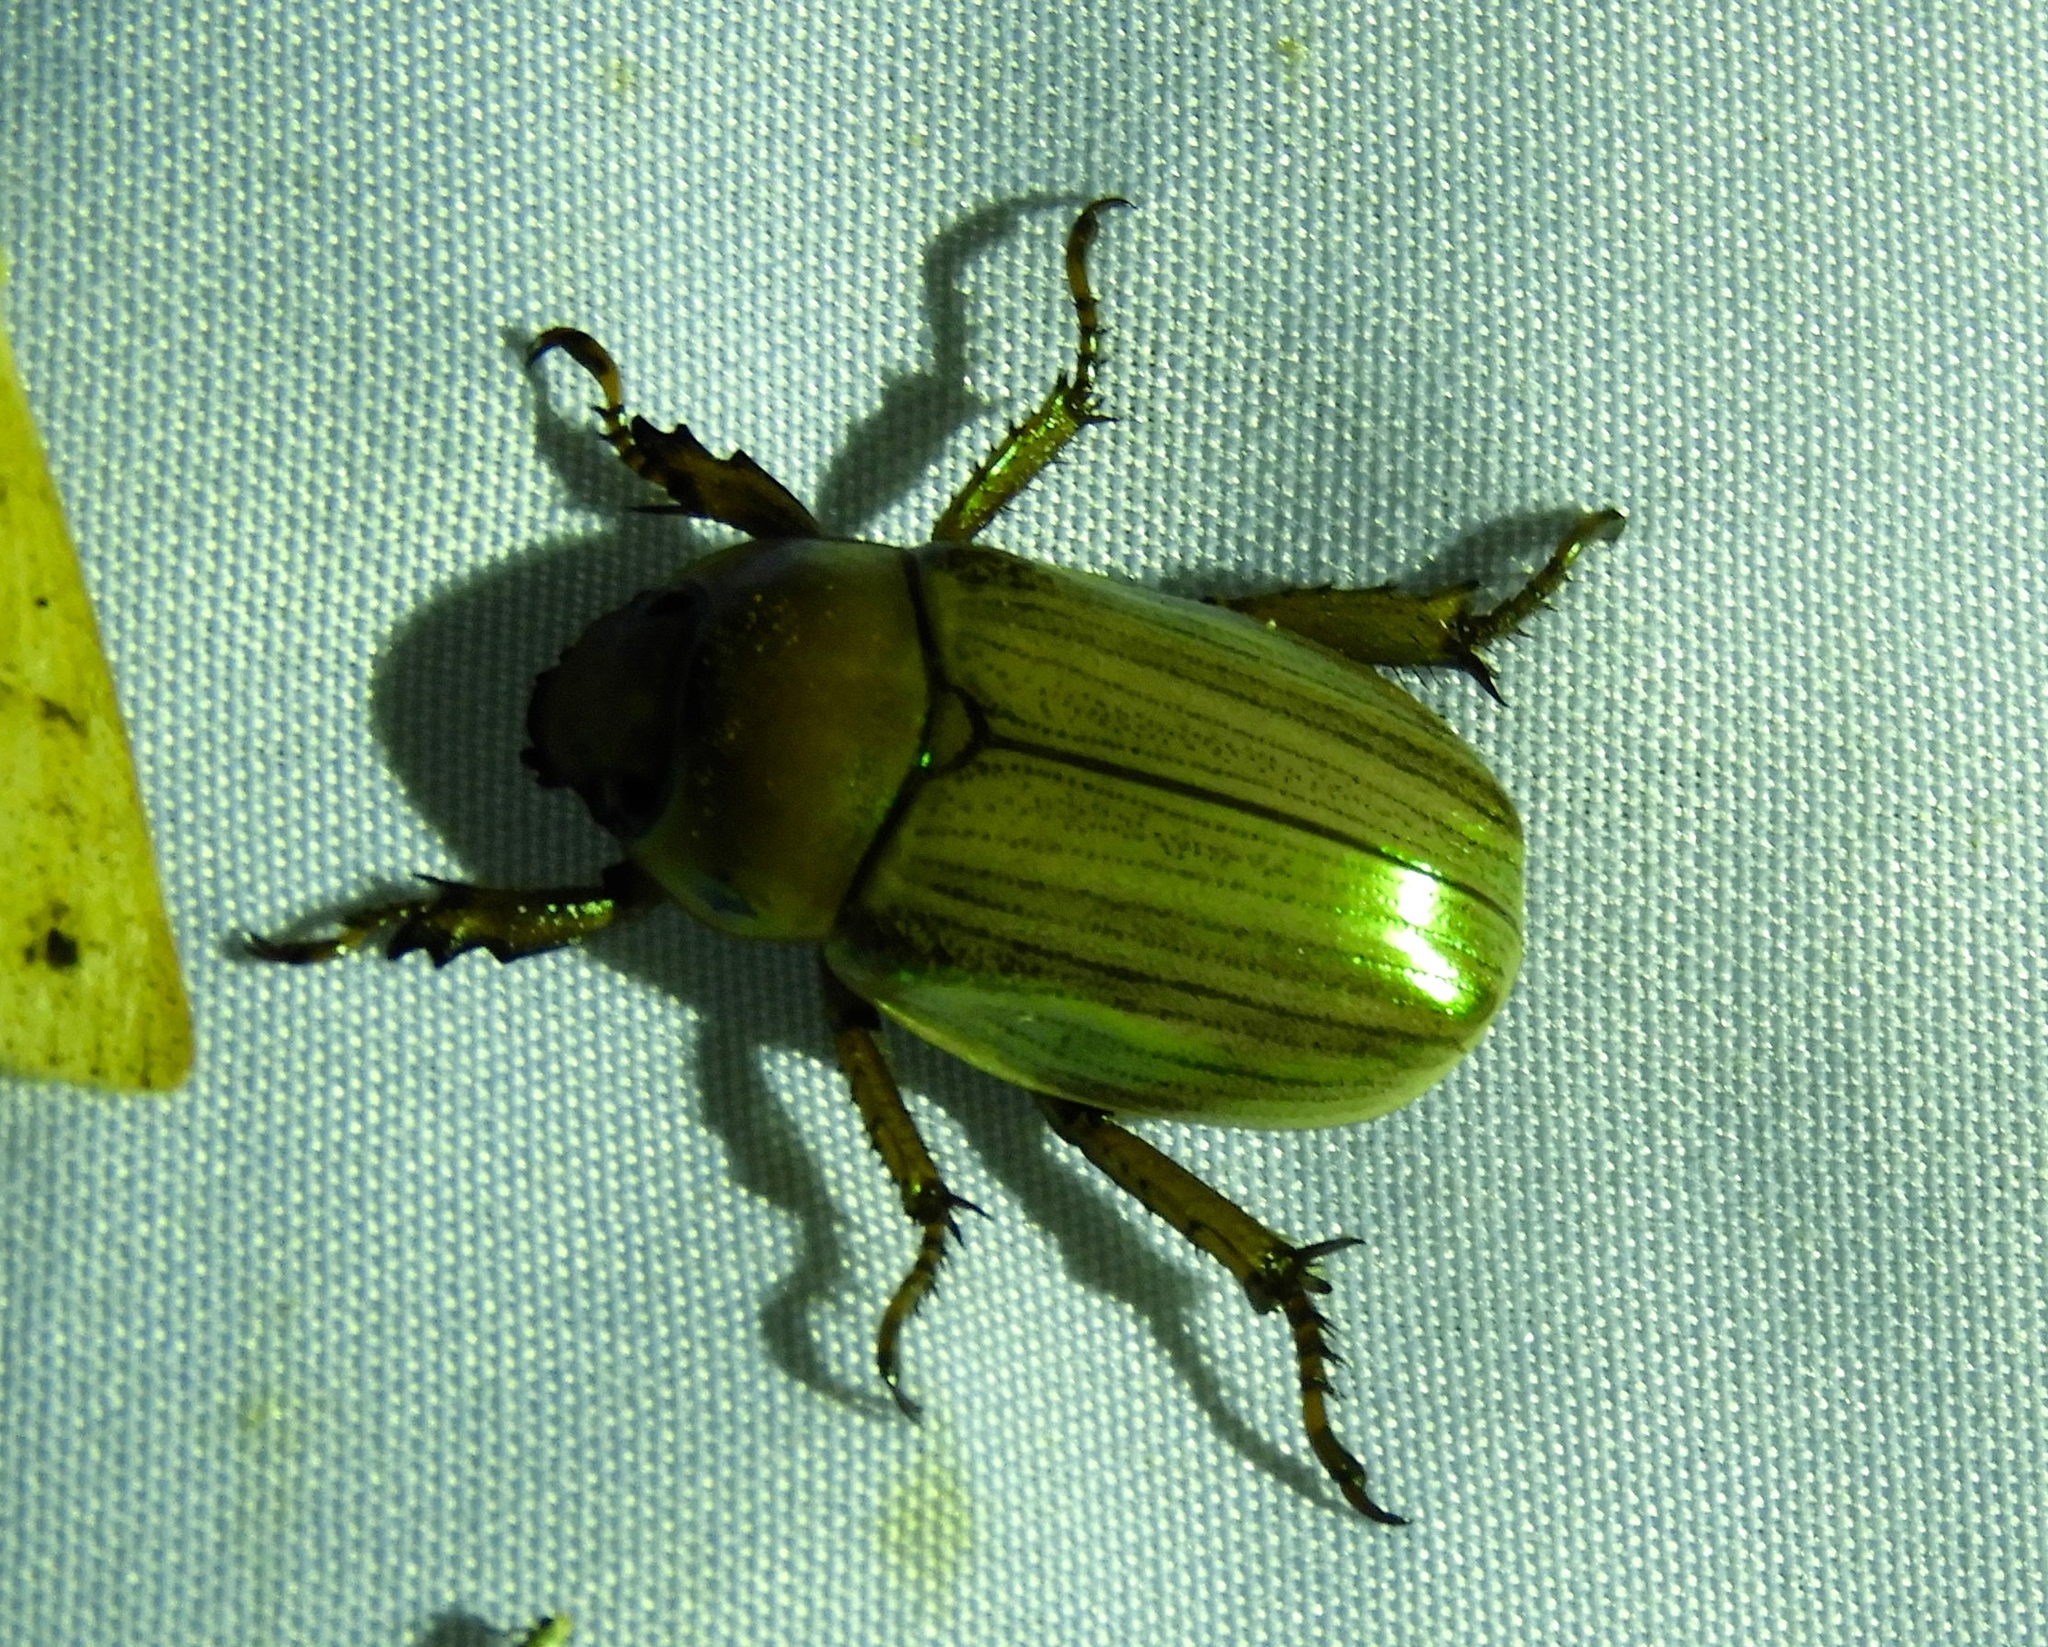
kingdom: Animalia
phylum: Arthropoda
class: Insecta
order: Coleoptera
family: Scarabaeidae
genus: Pelidnota
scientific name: Pelidnota virescens
